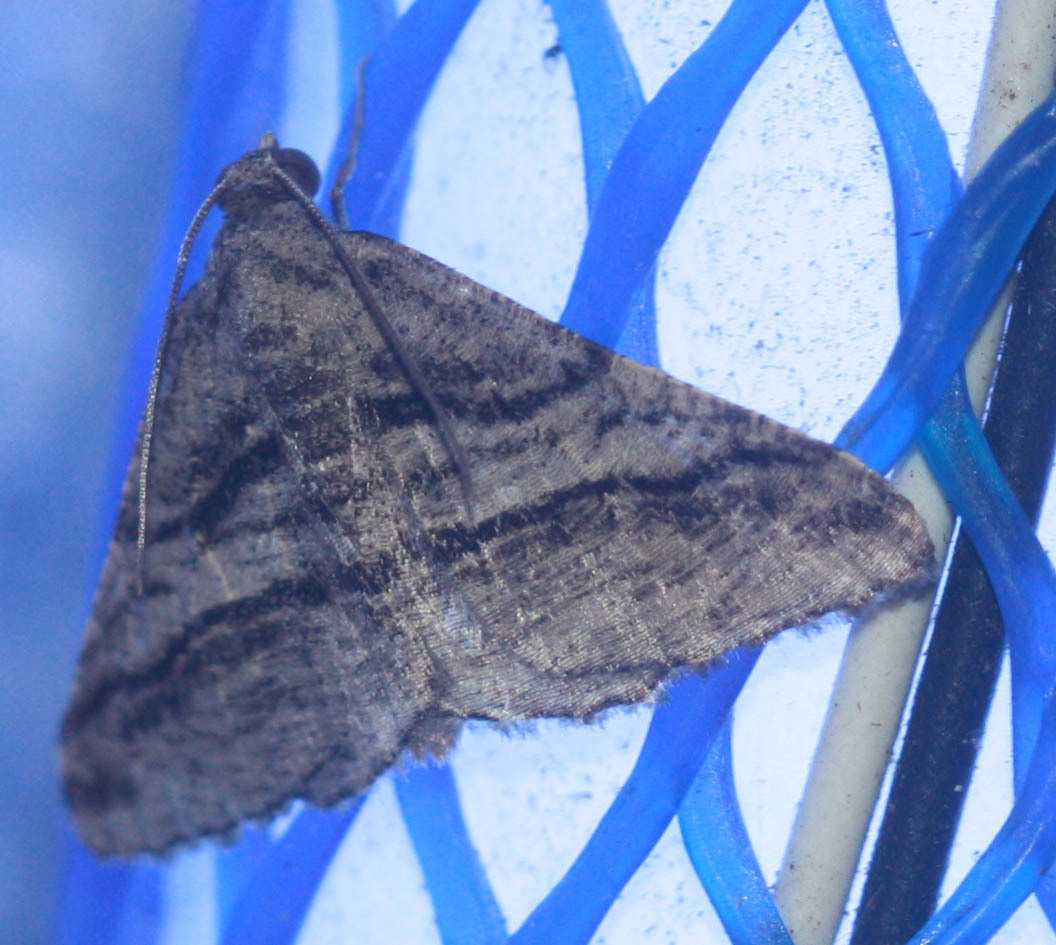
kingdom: Animalia
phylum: Arthropoda
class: Insecta
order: Lepidoptera
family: Geometridae
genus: Digrammia
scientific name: Digrammia atrofasciata
